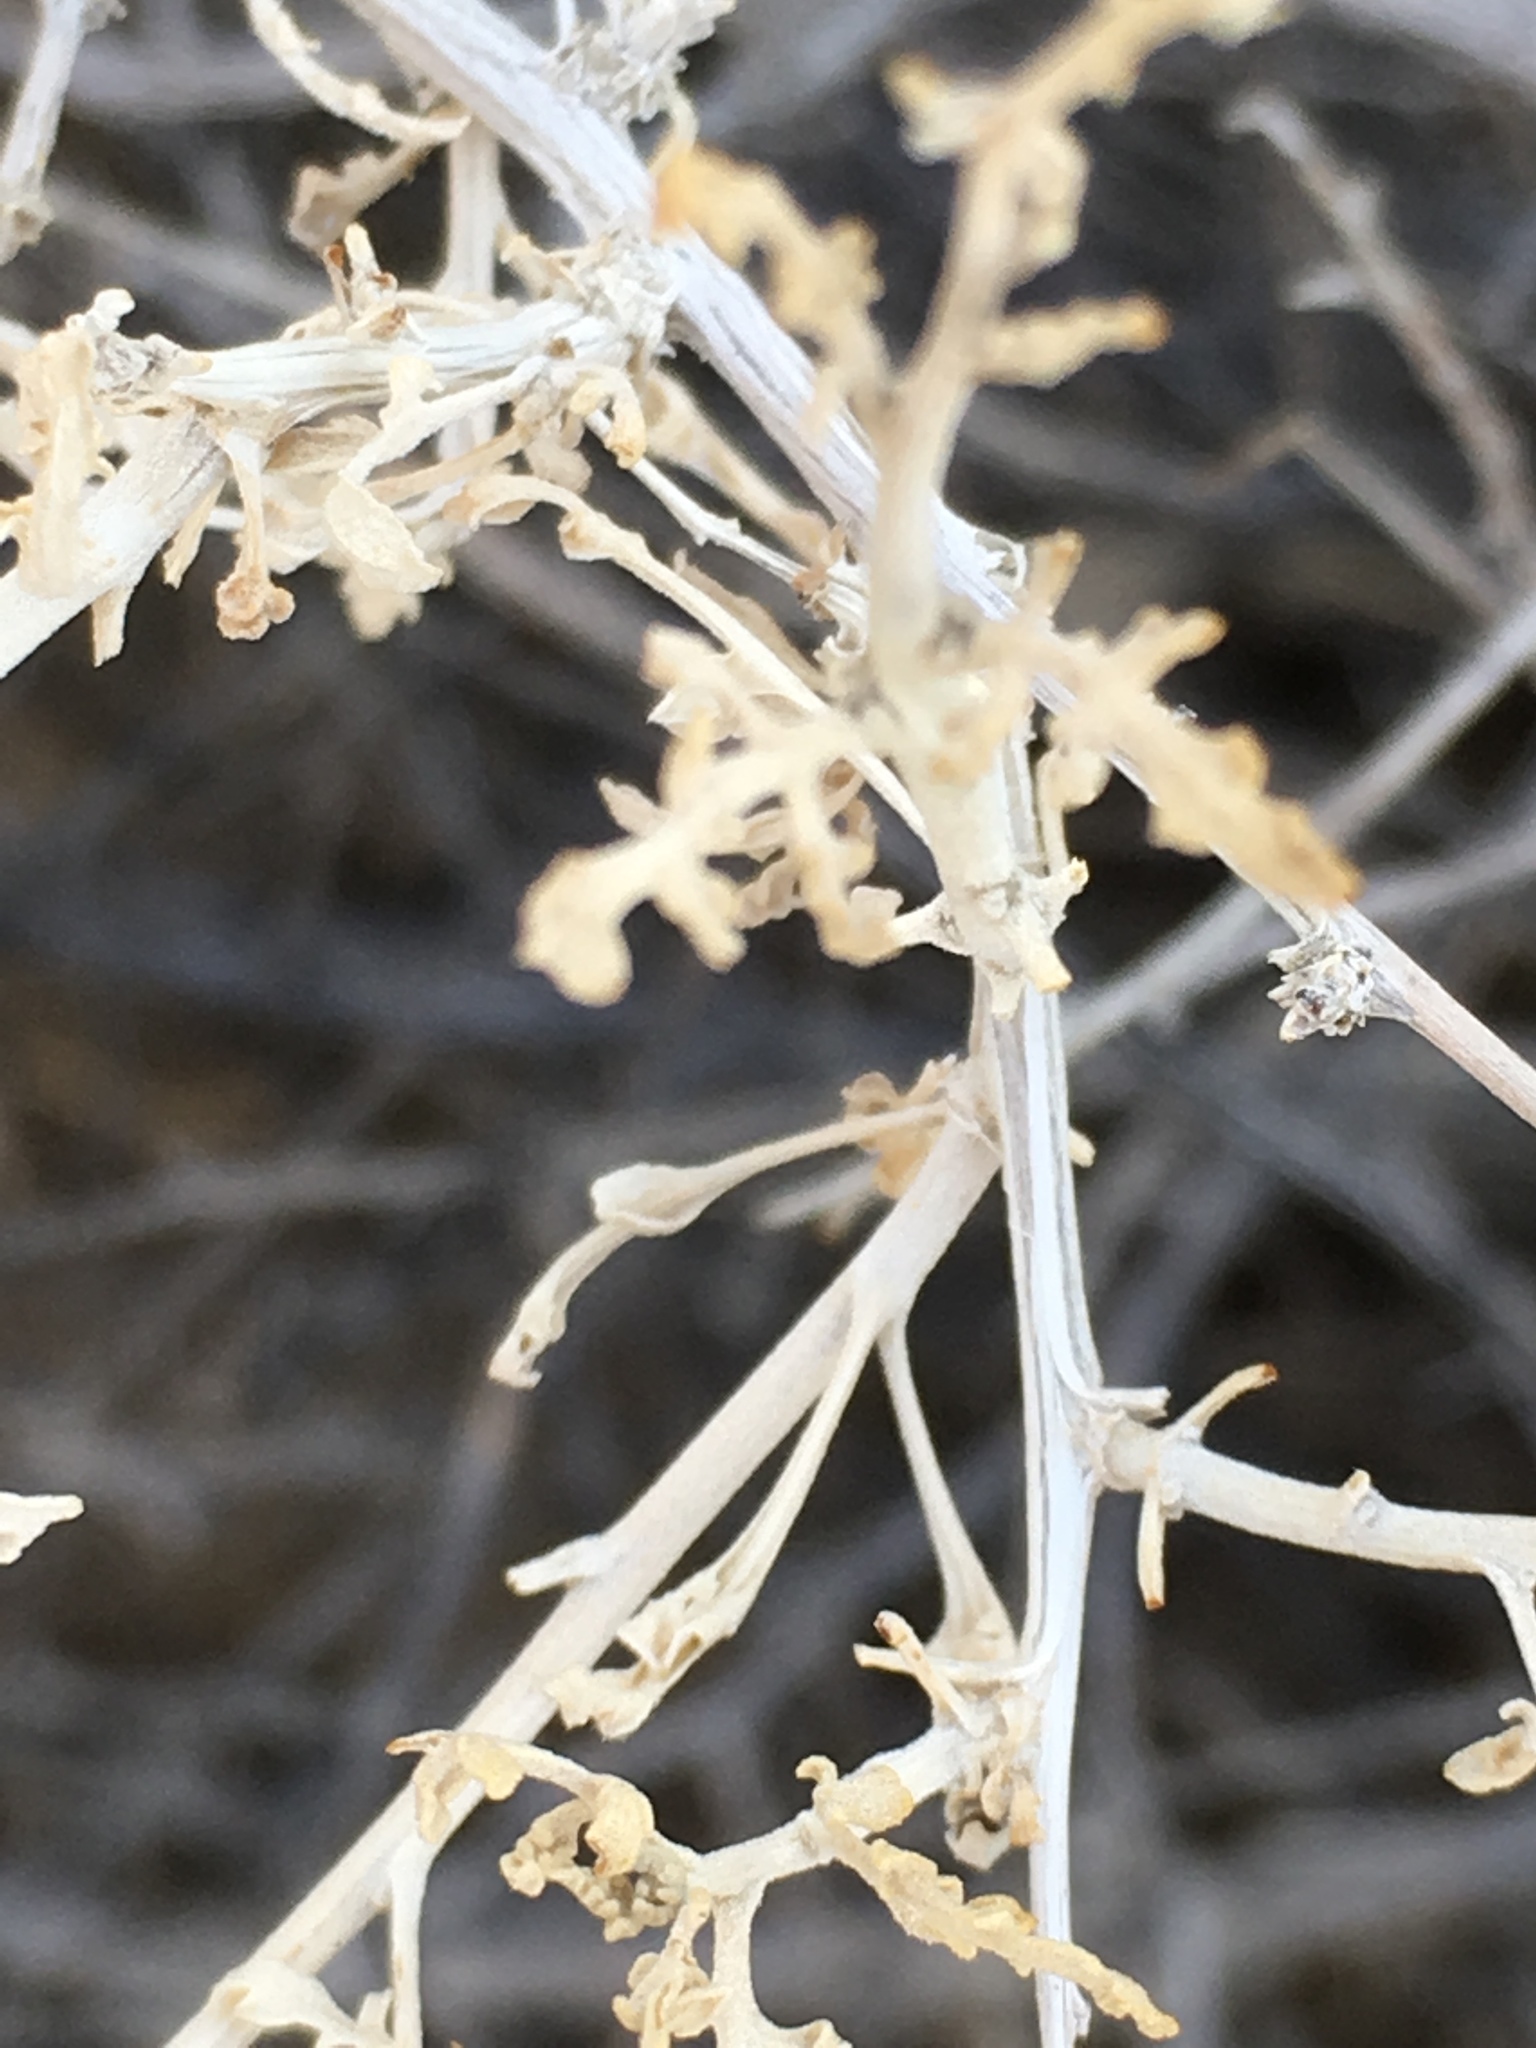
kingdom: Plantae
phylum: Tracheophyta
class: Magnoliopsida
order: Asterales
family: Asteraceae
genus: Ambrosia
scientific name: Ambrosia dumosa
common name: Bur-sage
